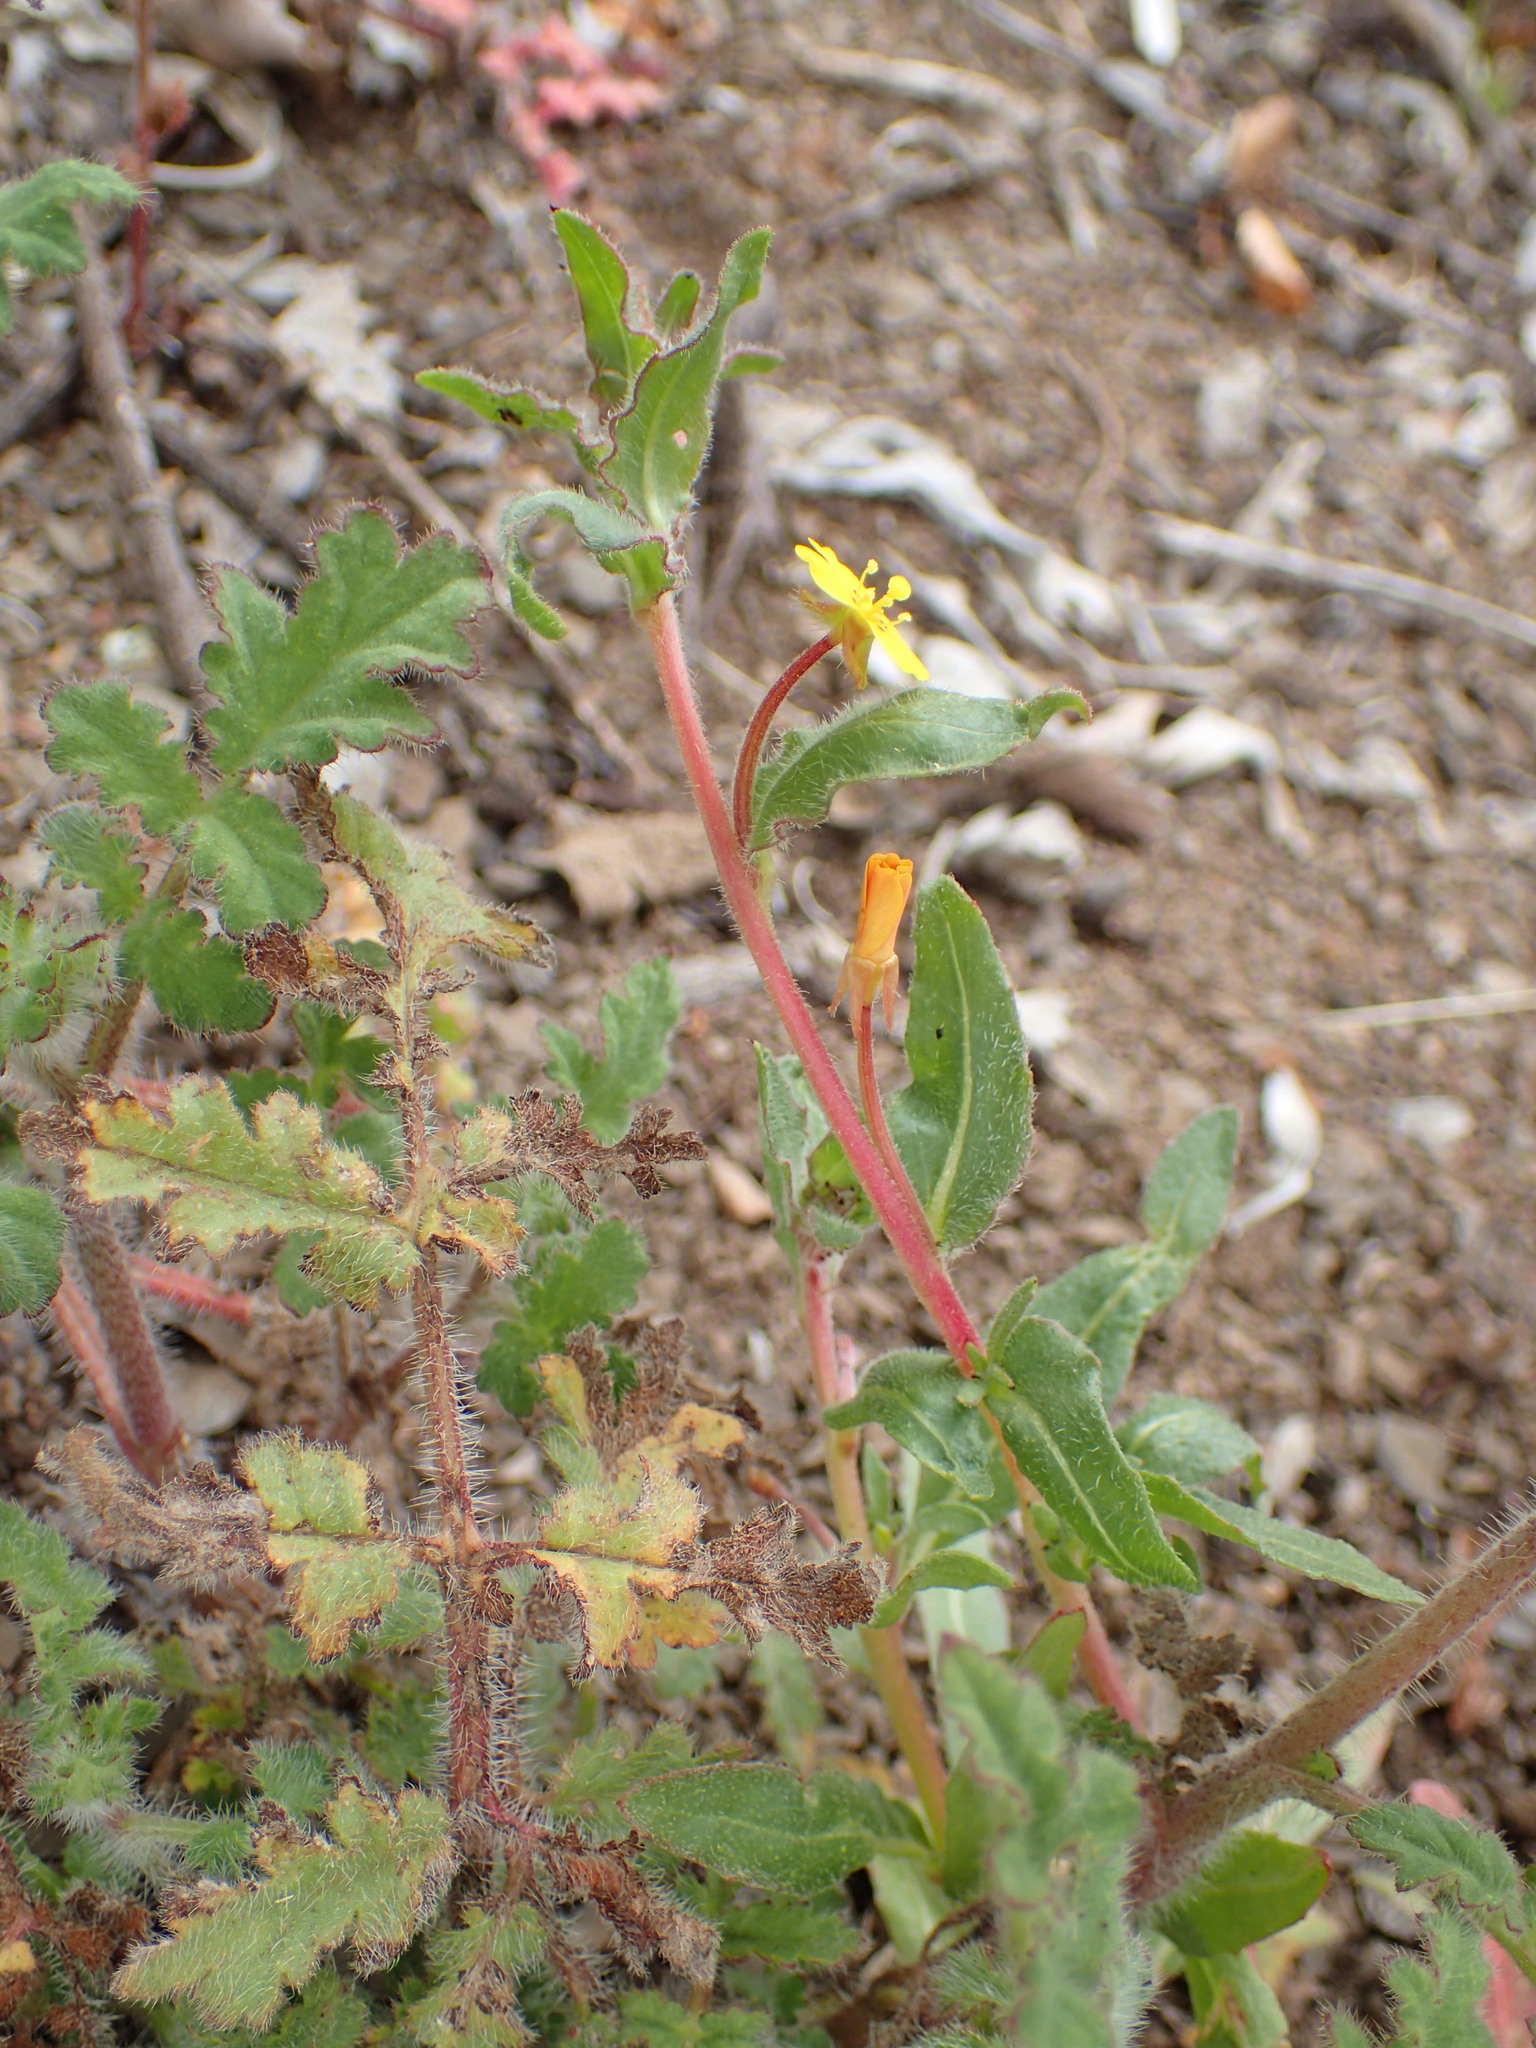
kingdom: Plantae
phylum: Tracheophyta
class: Magnoliopsida
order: Myrtales
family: Onagraceae
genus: Camissoniopsis
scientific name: Camissoniopsis micrantha
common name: Miniature suncup
